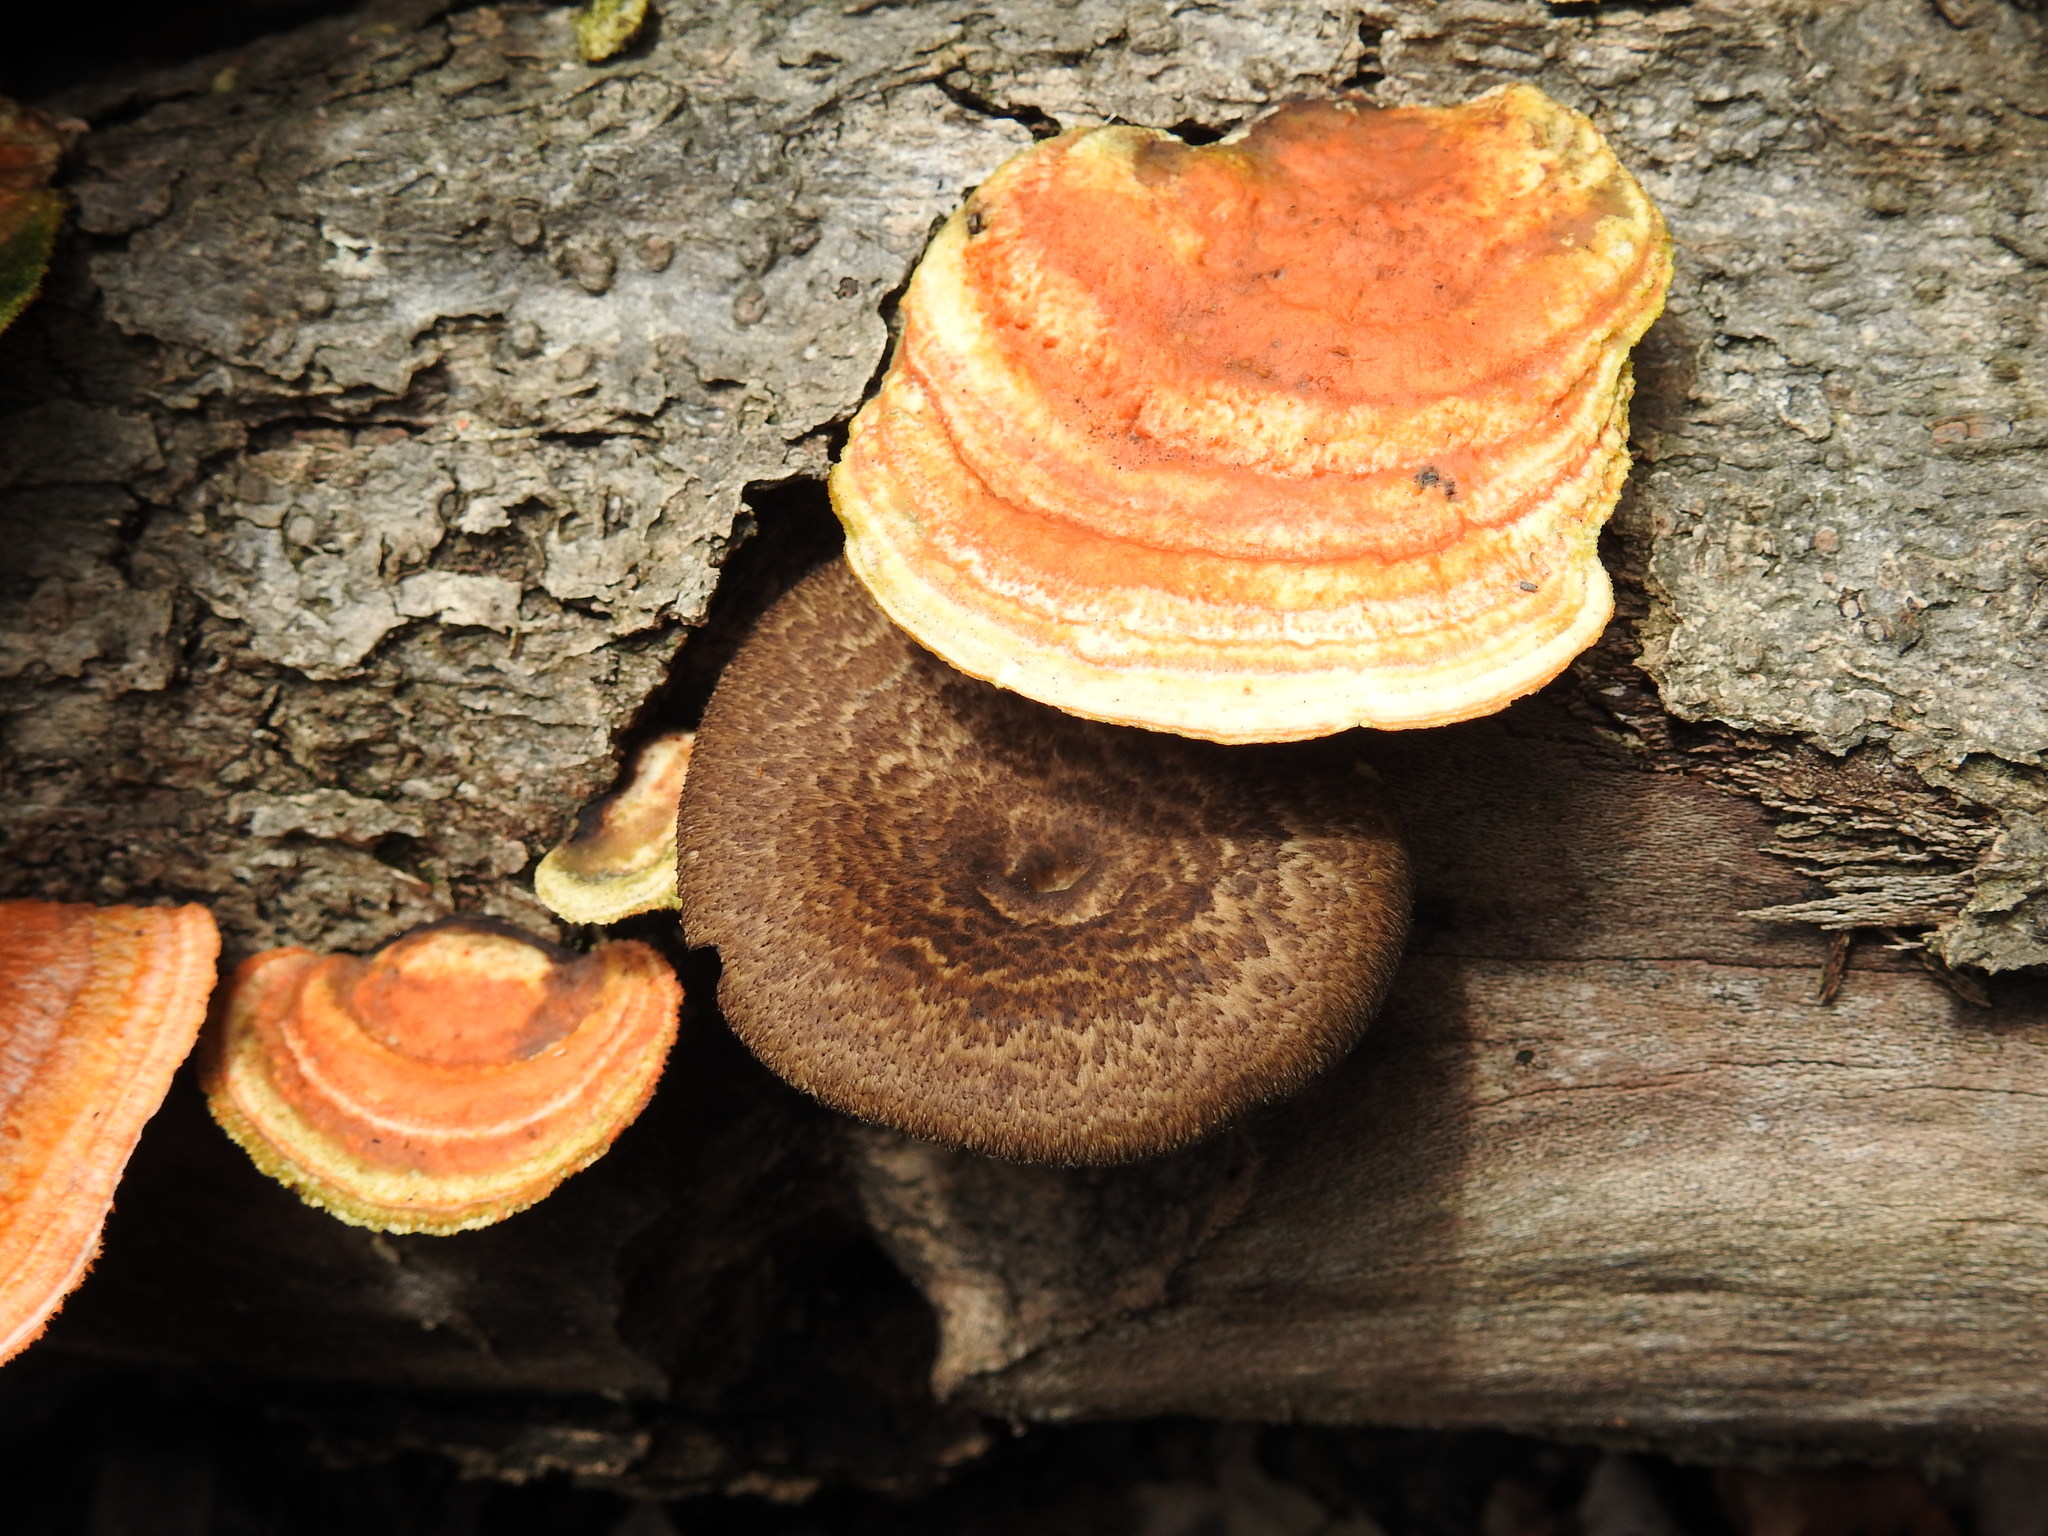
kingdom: Fungi
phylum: Basidiomycota
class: Agaricomycetes
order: Polyporales
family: Polyporaceae
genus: Lentinus
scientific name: Lentinus arcularius
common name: Spring polypore
